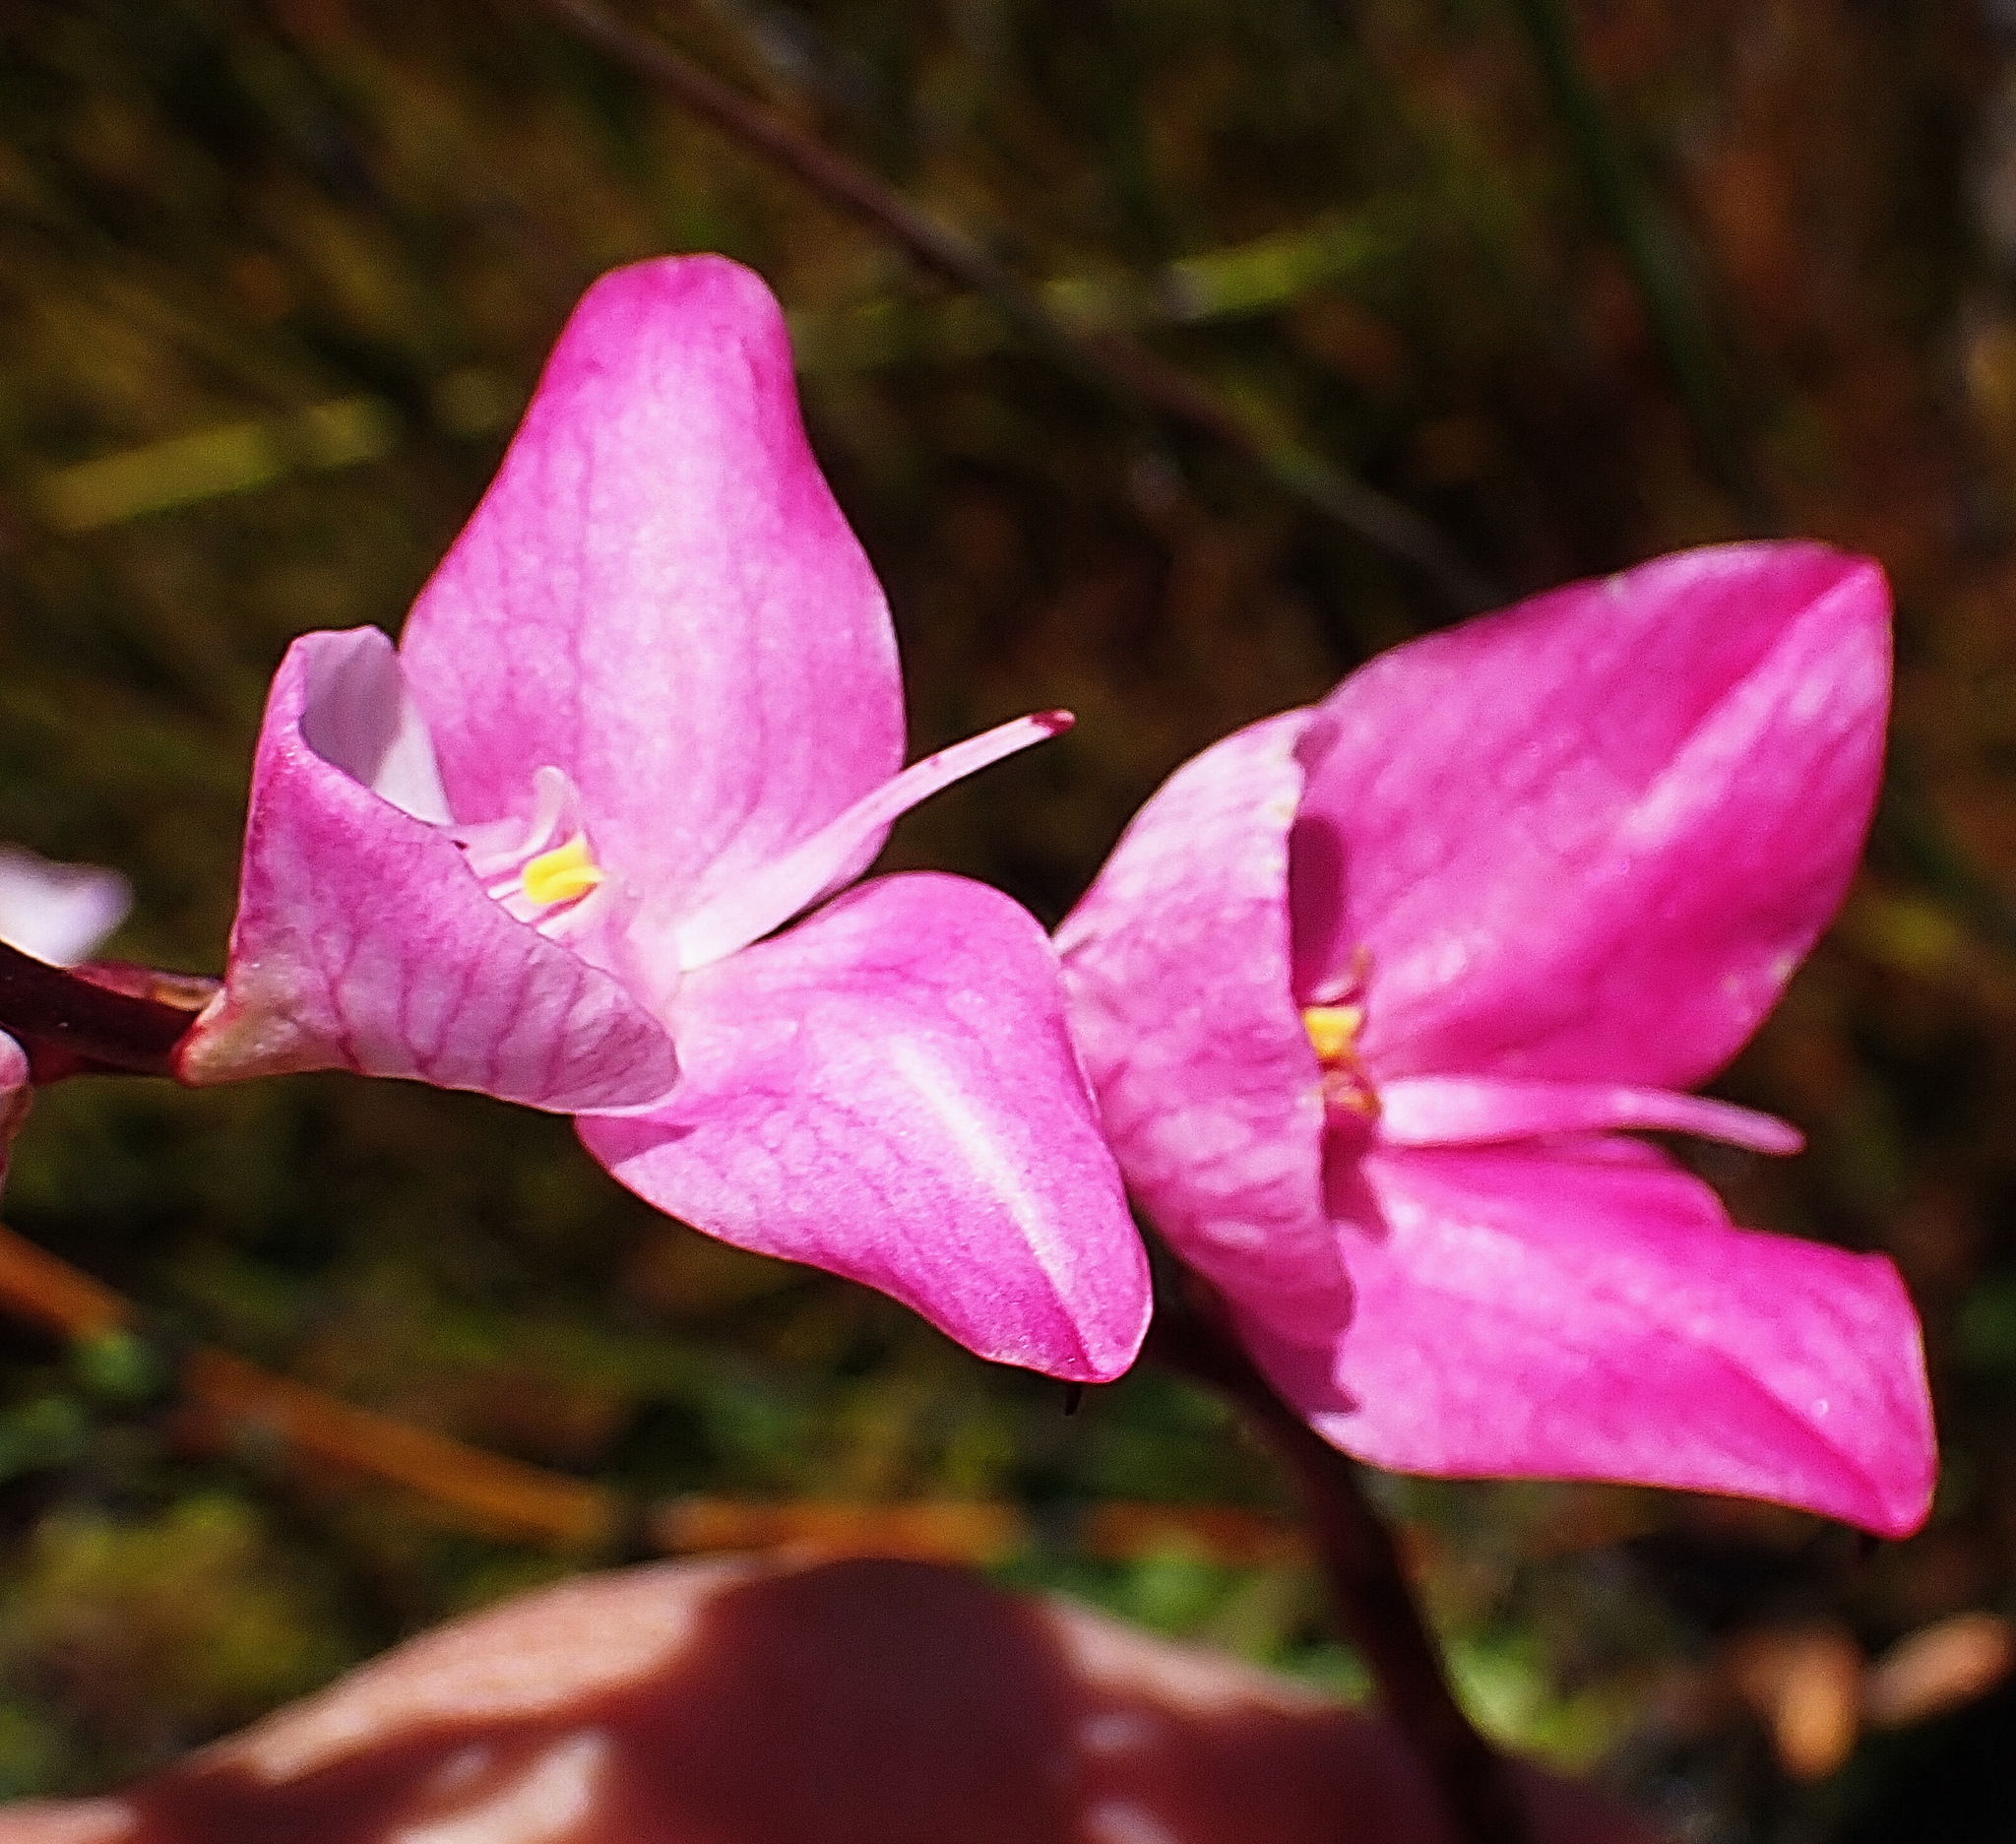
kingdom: Plantae
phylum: Tracheophyta
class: Liliopsida
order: Asparagales
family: Orchidaceae
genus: Disa
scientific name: Disa racemosa
